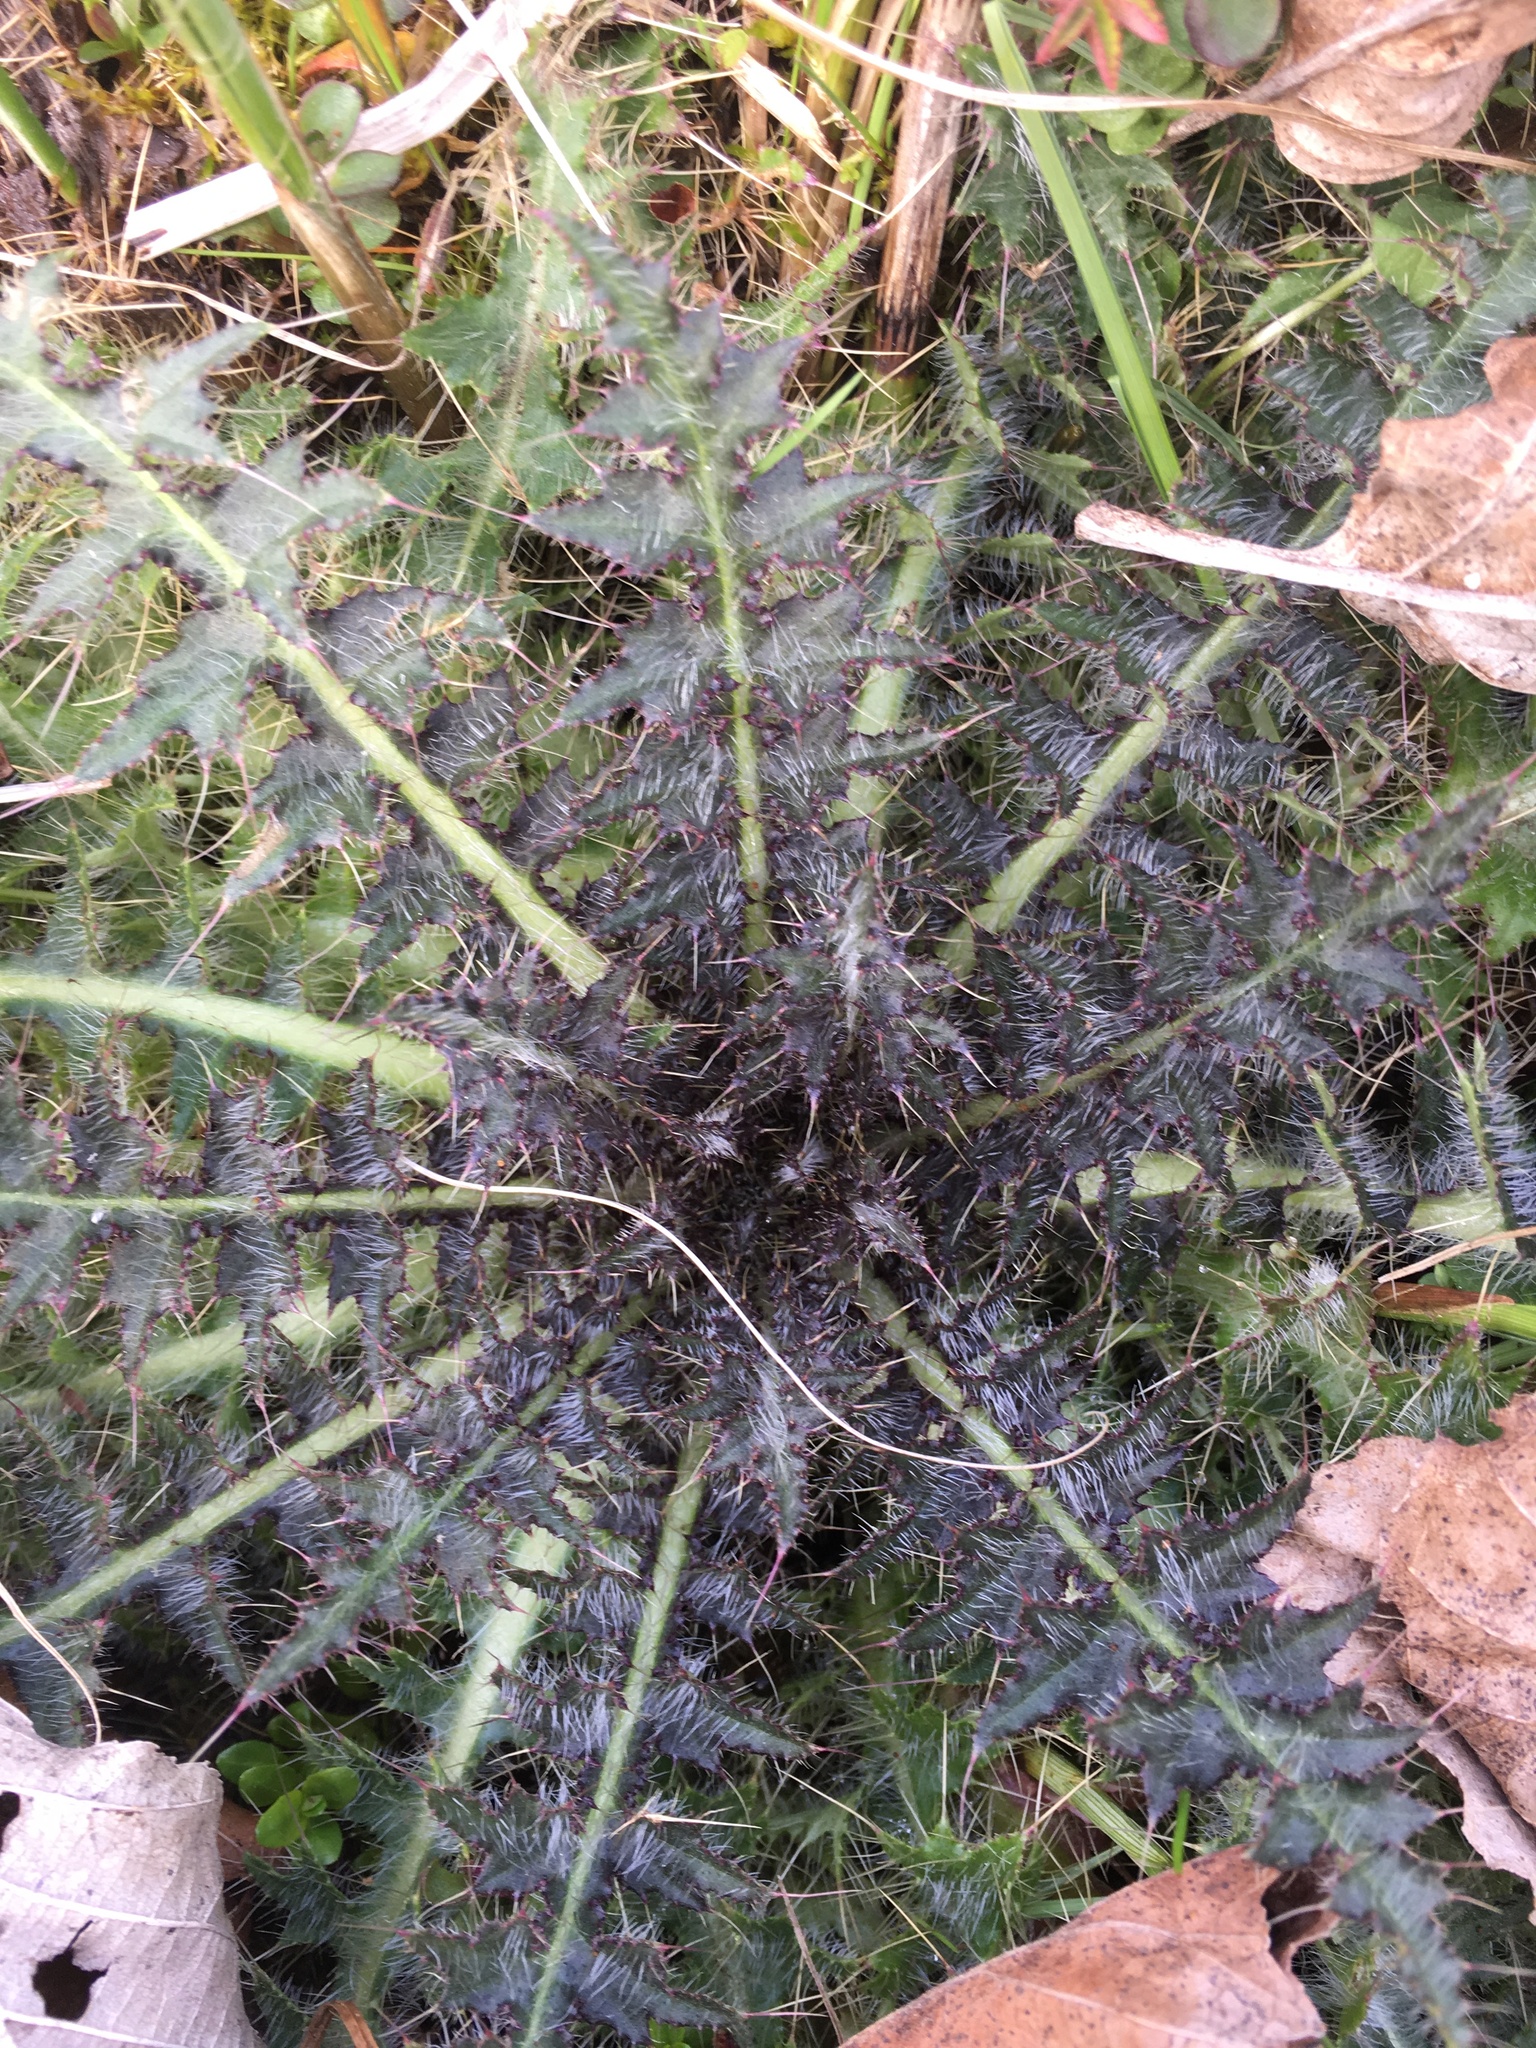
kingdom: Plantae
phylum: Tracheophyta
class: Magnoliopsida
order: Asterales
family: Asteraceae
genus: Cirsium
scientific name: Cirsium palustre
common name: Marsh thistle
